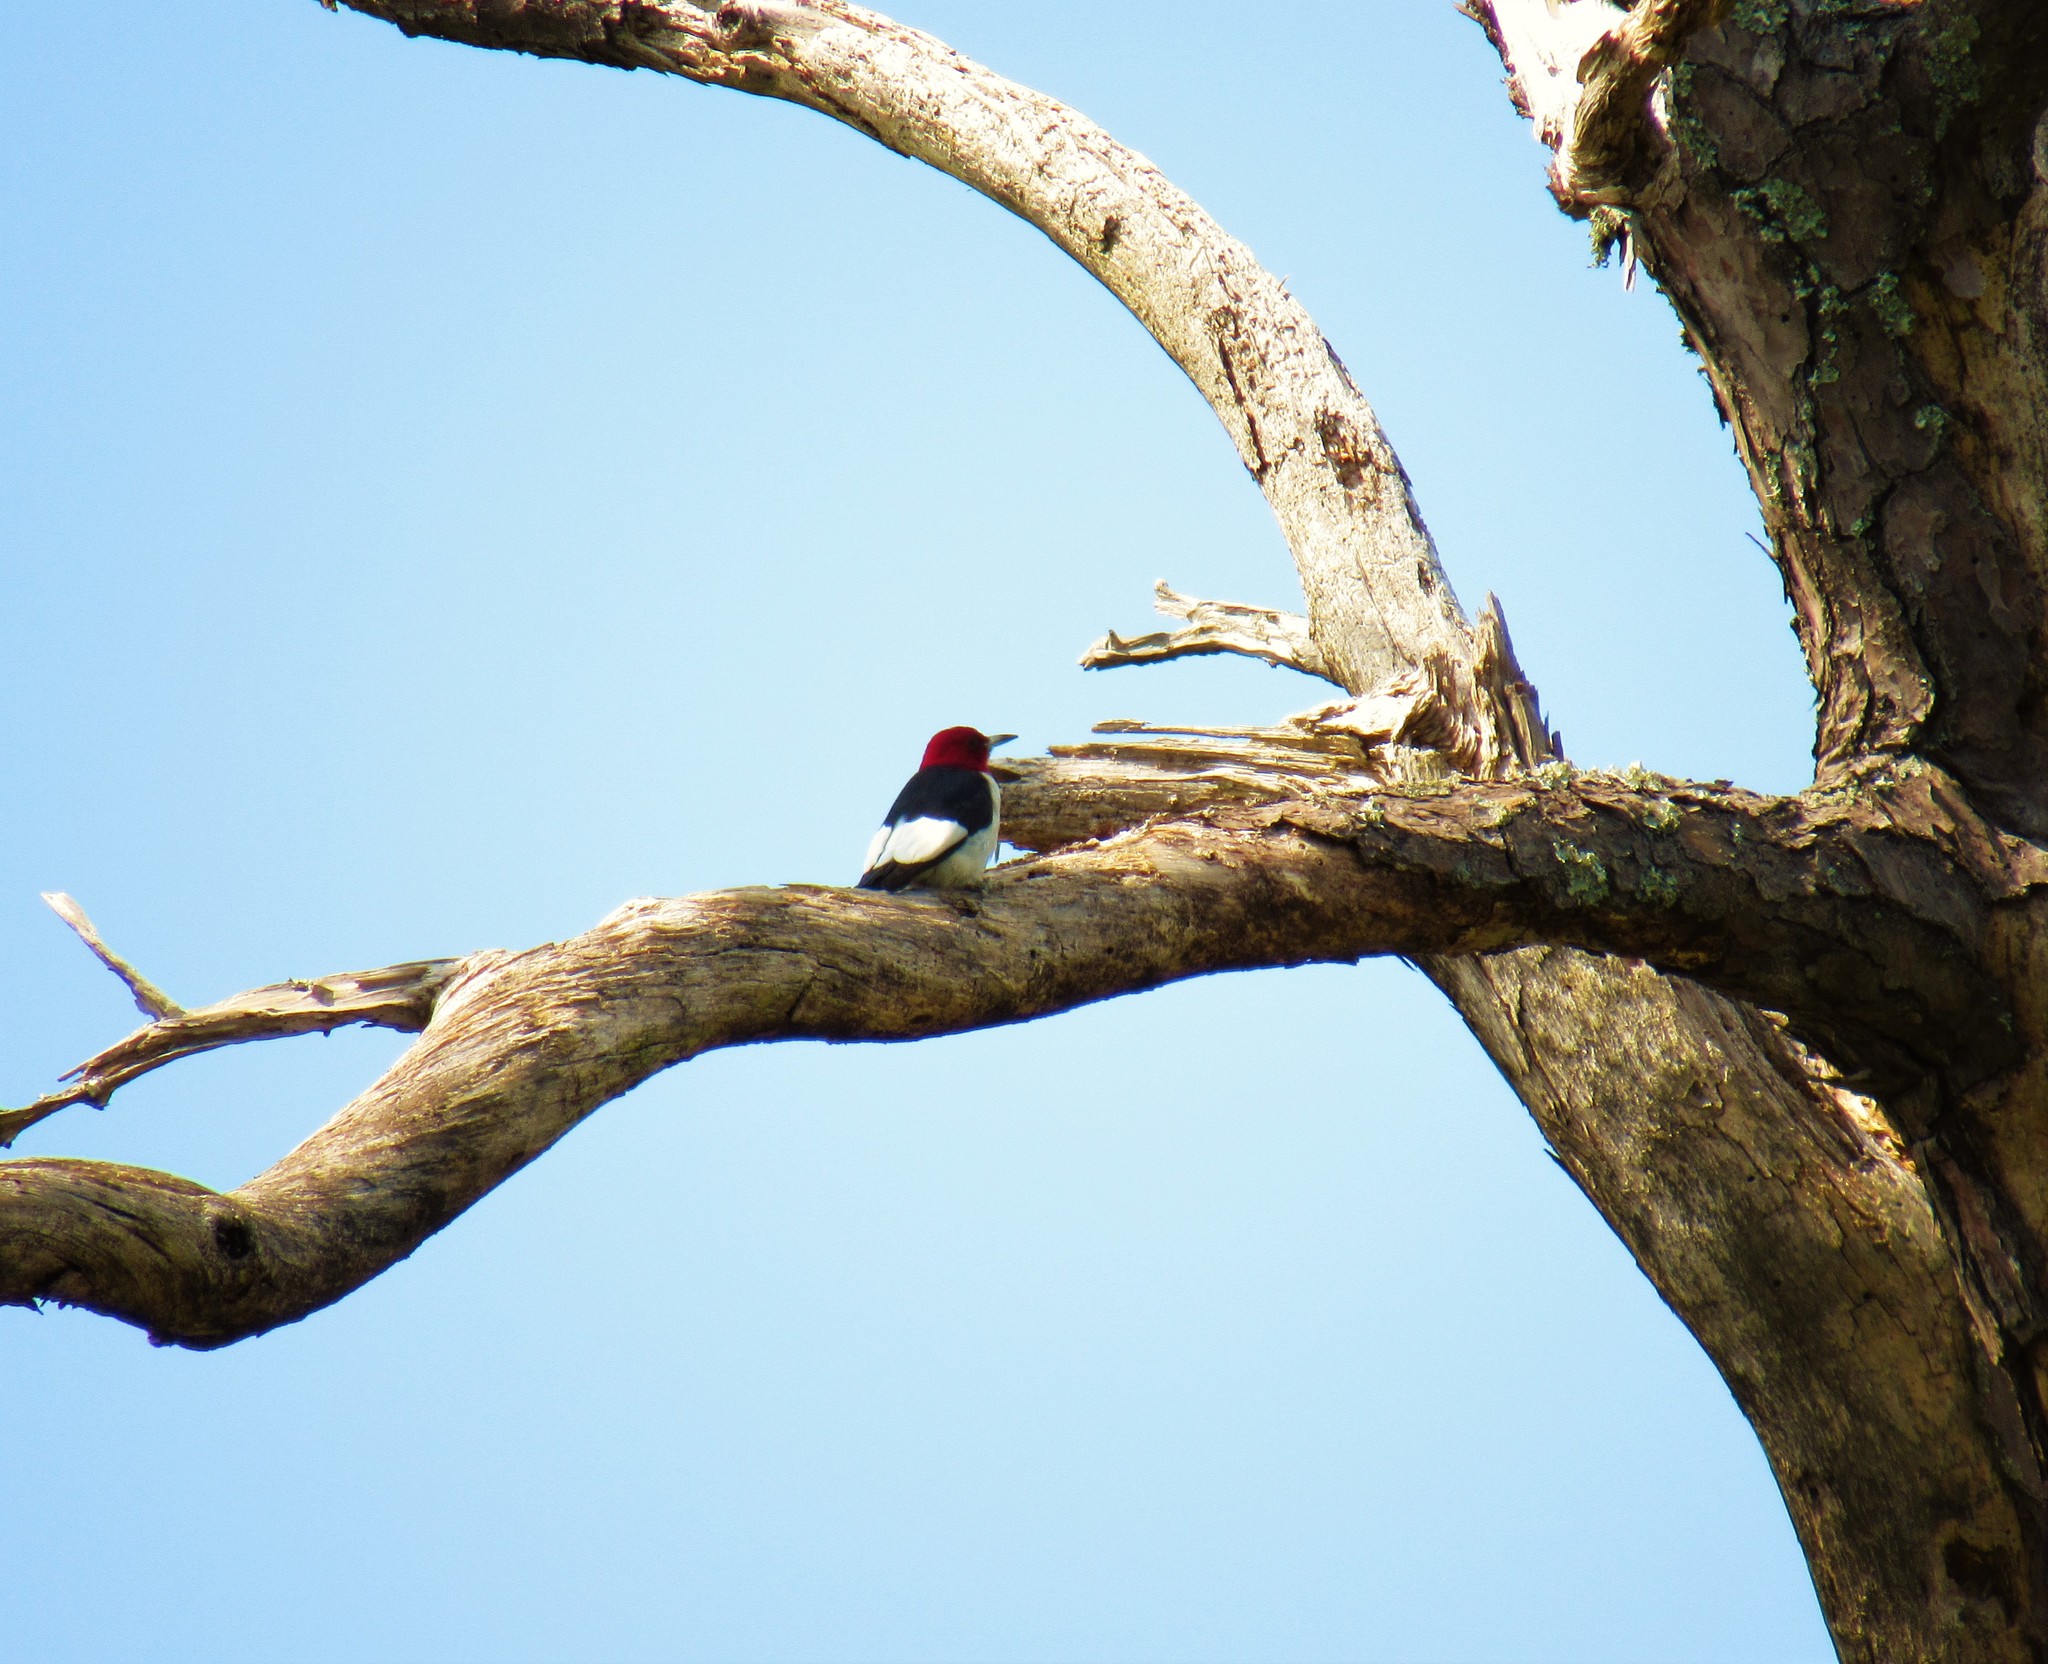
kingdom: Animalia
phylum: Chordata
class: Aves
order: Piciformes
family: Picidae
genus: Melanerpes
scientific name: Melanerpes erythrocephalus
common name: Red-headed woodpecker
